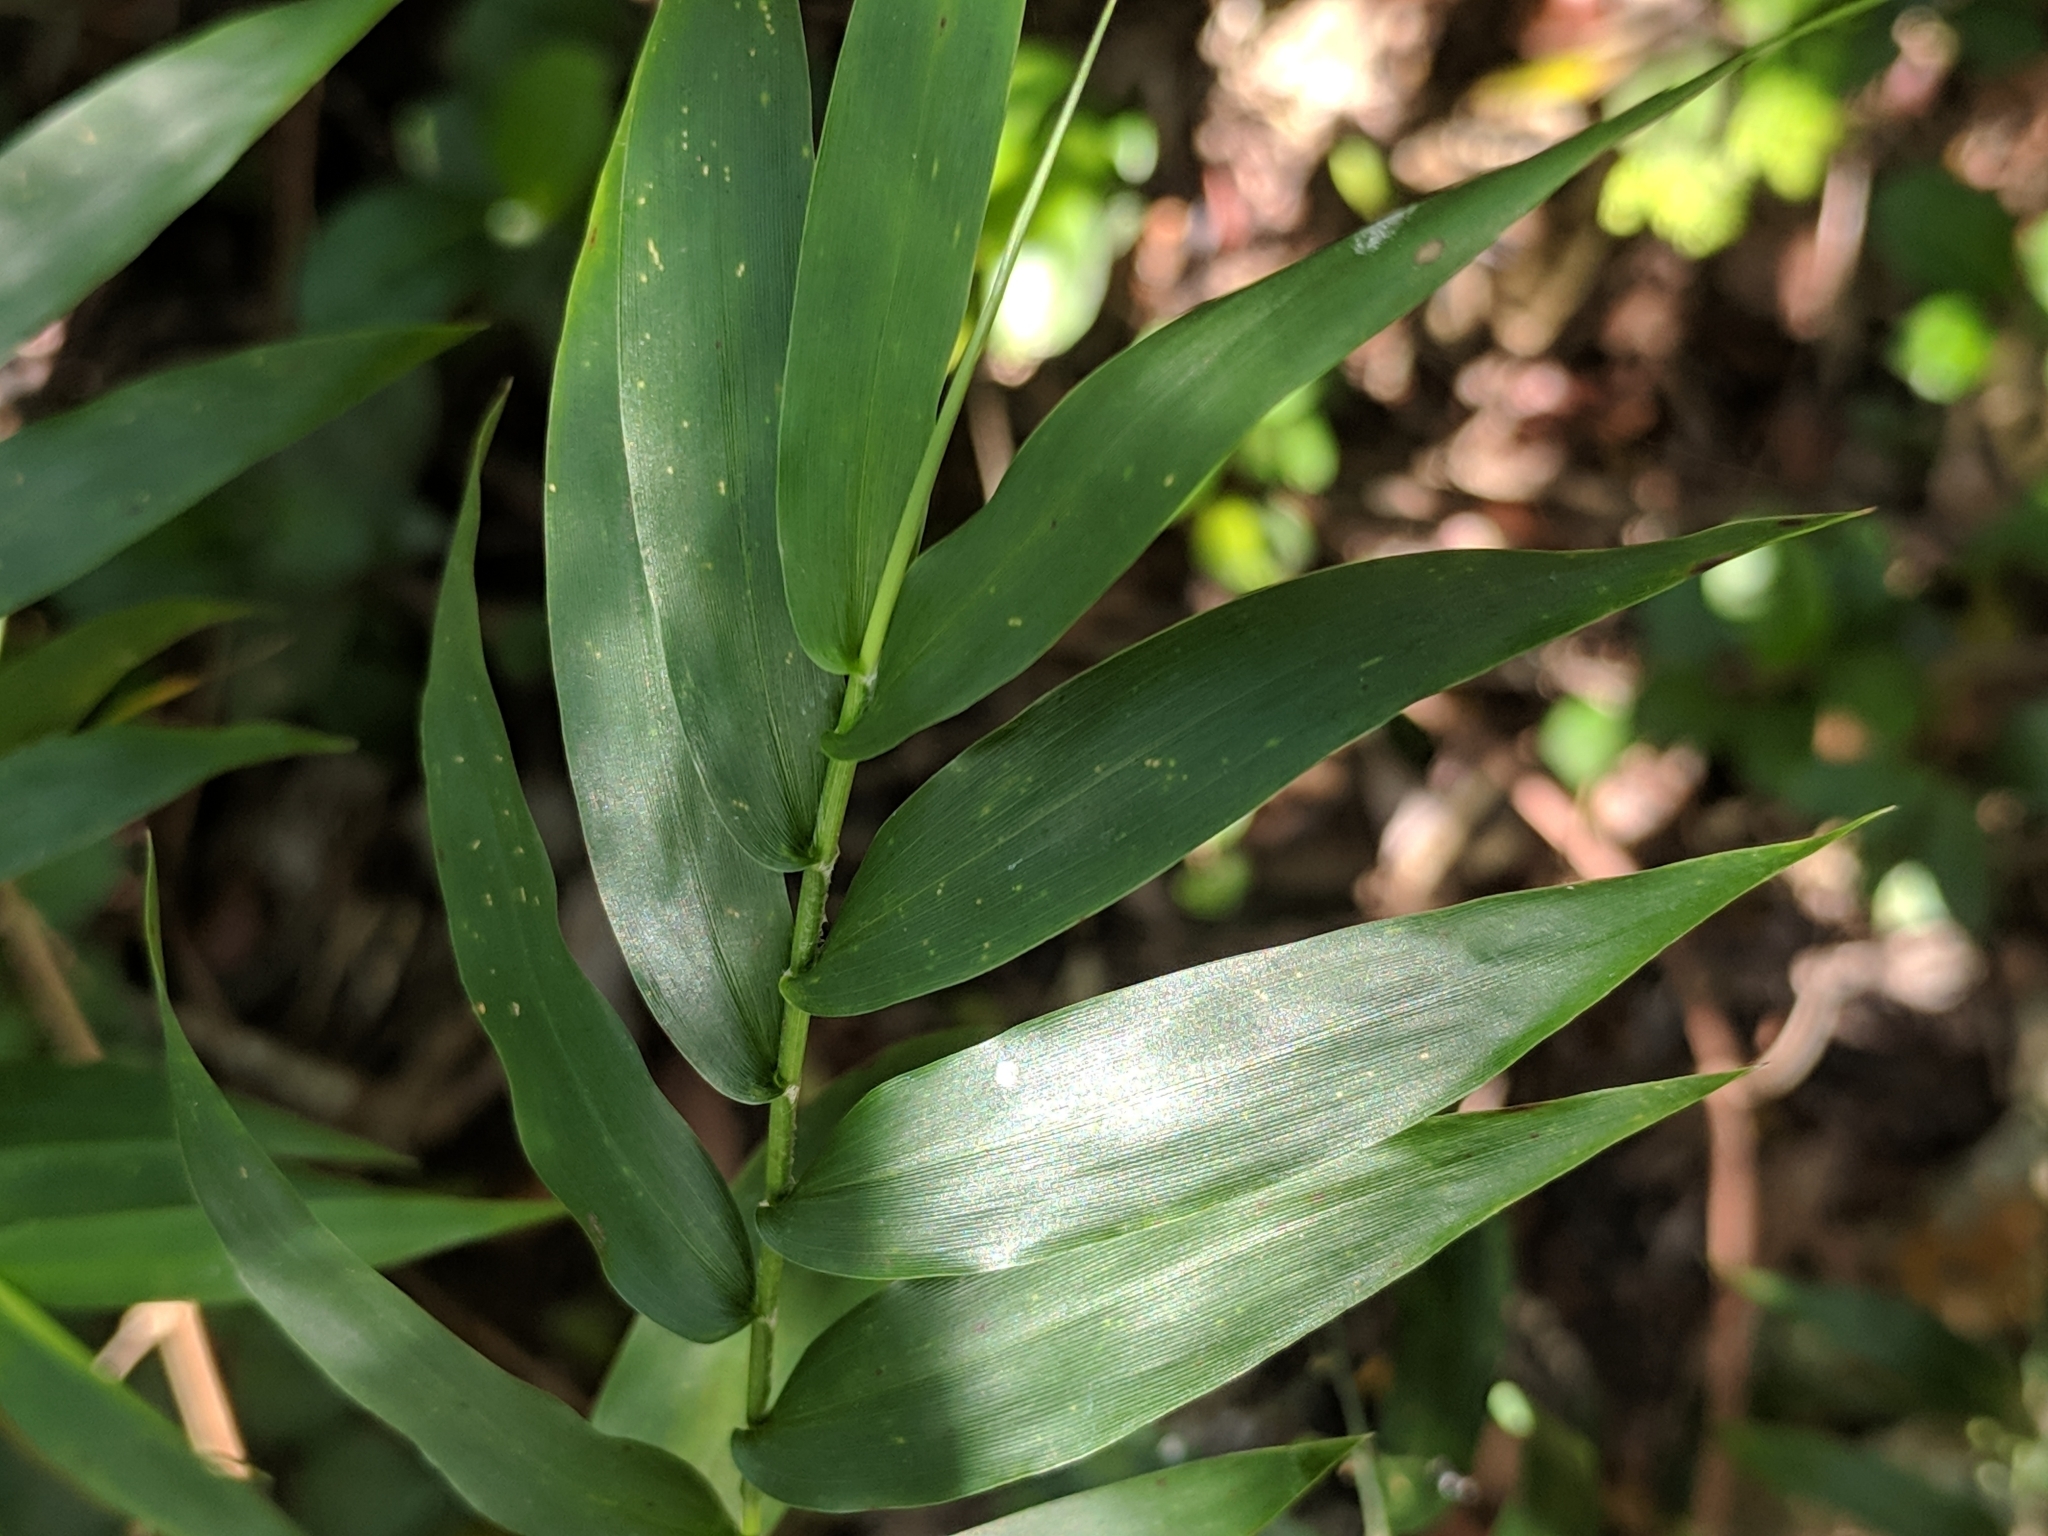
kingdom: Plantae
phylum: Tracheophyta
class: Liliopsida
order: Poales
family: Poaceae
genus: Lasiacis
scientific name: Lasiacis divaricata
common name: Smallcane
